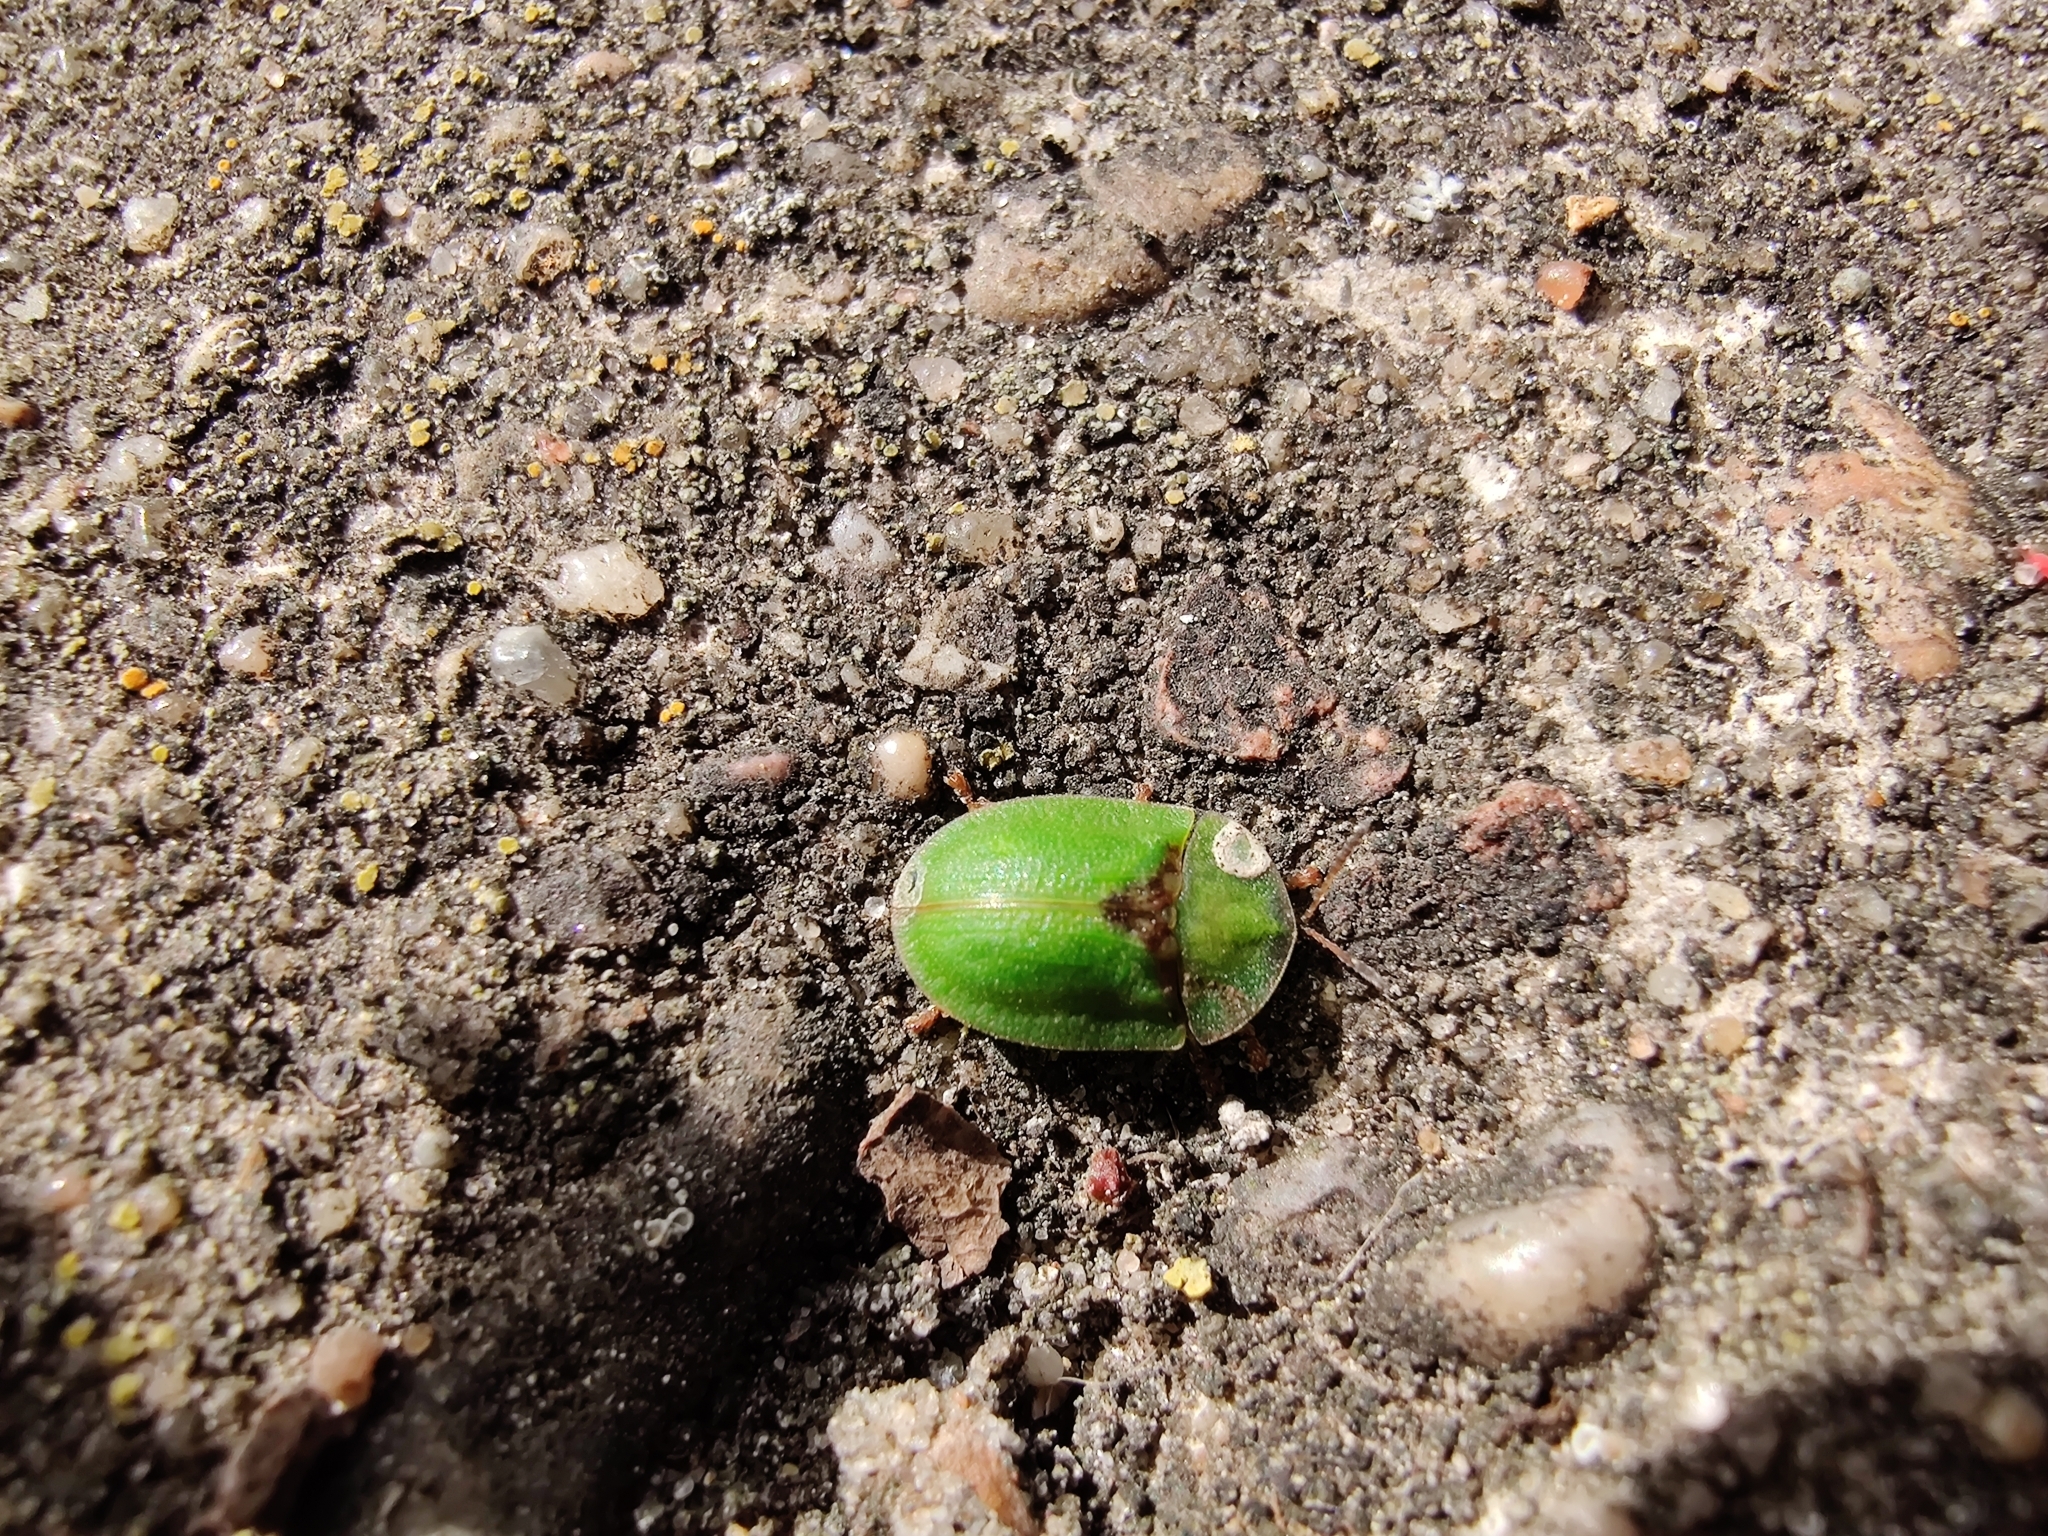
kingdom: Animalia
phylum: Arthropoda
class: Insecta
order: Coleoptera
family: Chrysomelidae
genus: Cassida
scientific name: Cassida rubiginosa
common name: Thistle tortoise beetle
